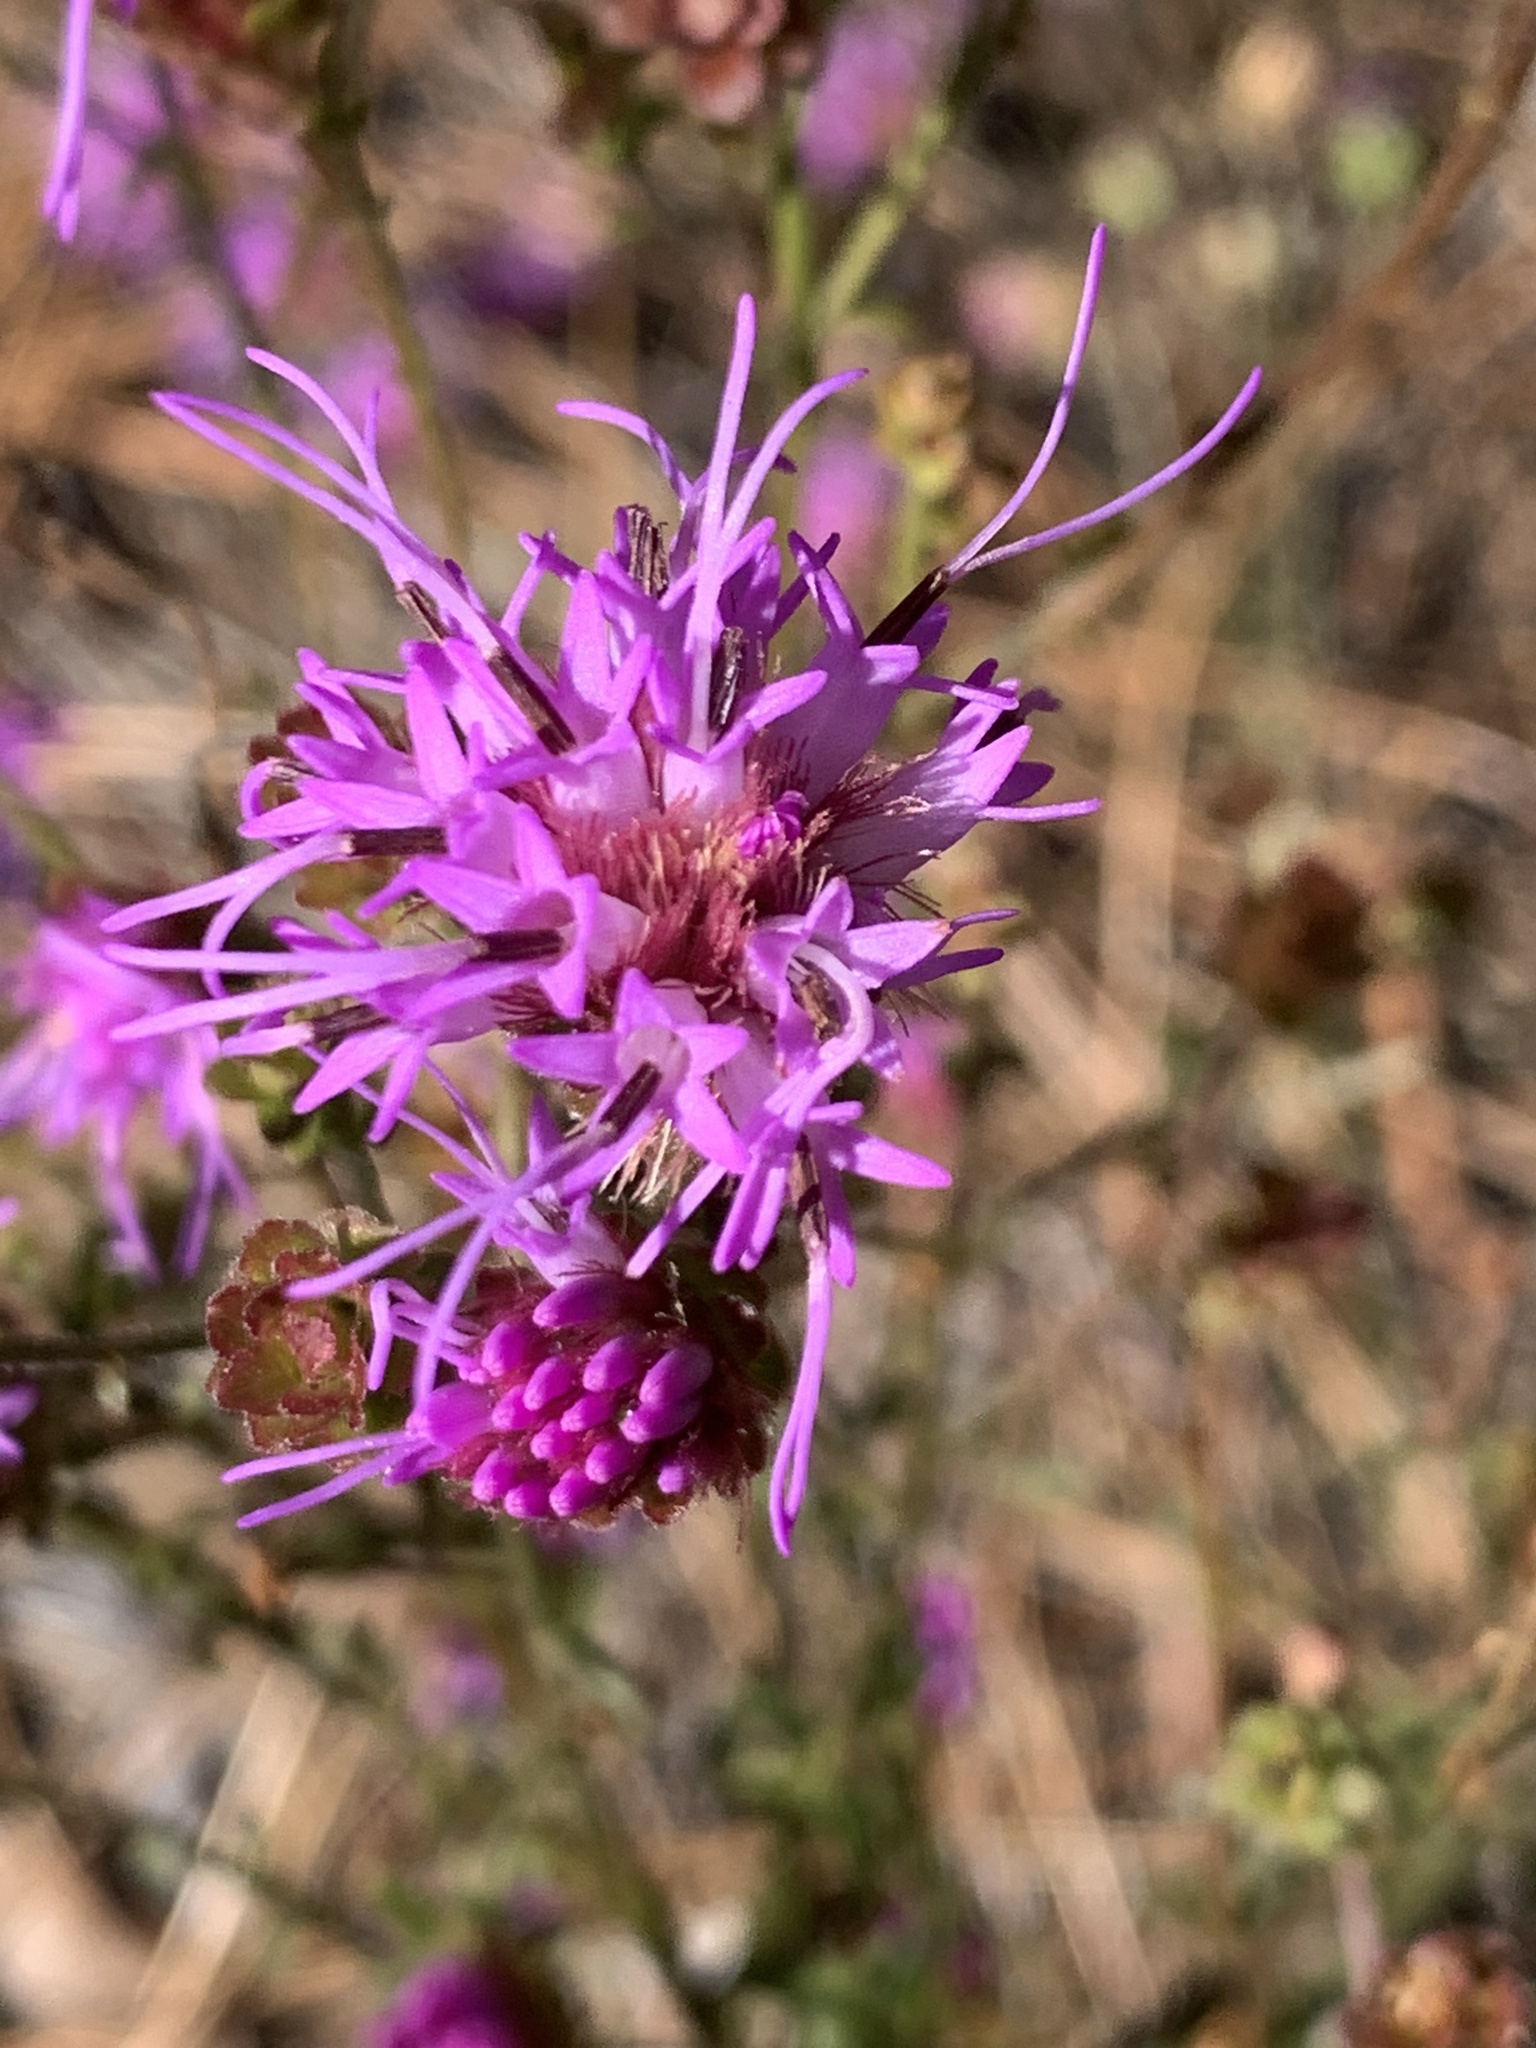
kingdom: Plantae
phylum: Tracheophyta
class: Magnoliopsida
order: Asterales
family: Asteraceae
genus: Carphephorus
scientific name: Carphephorus bellidifolius
